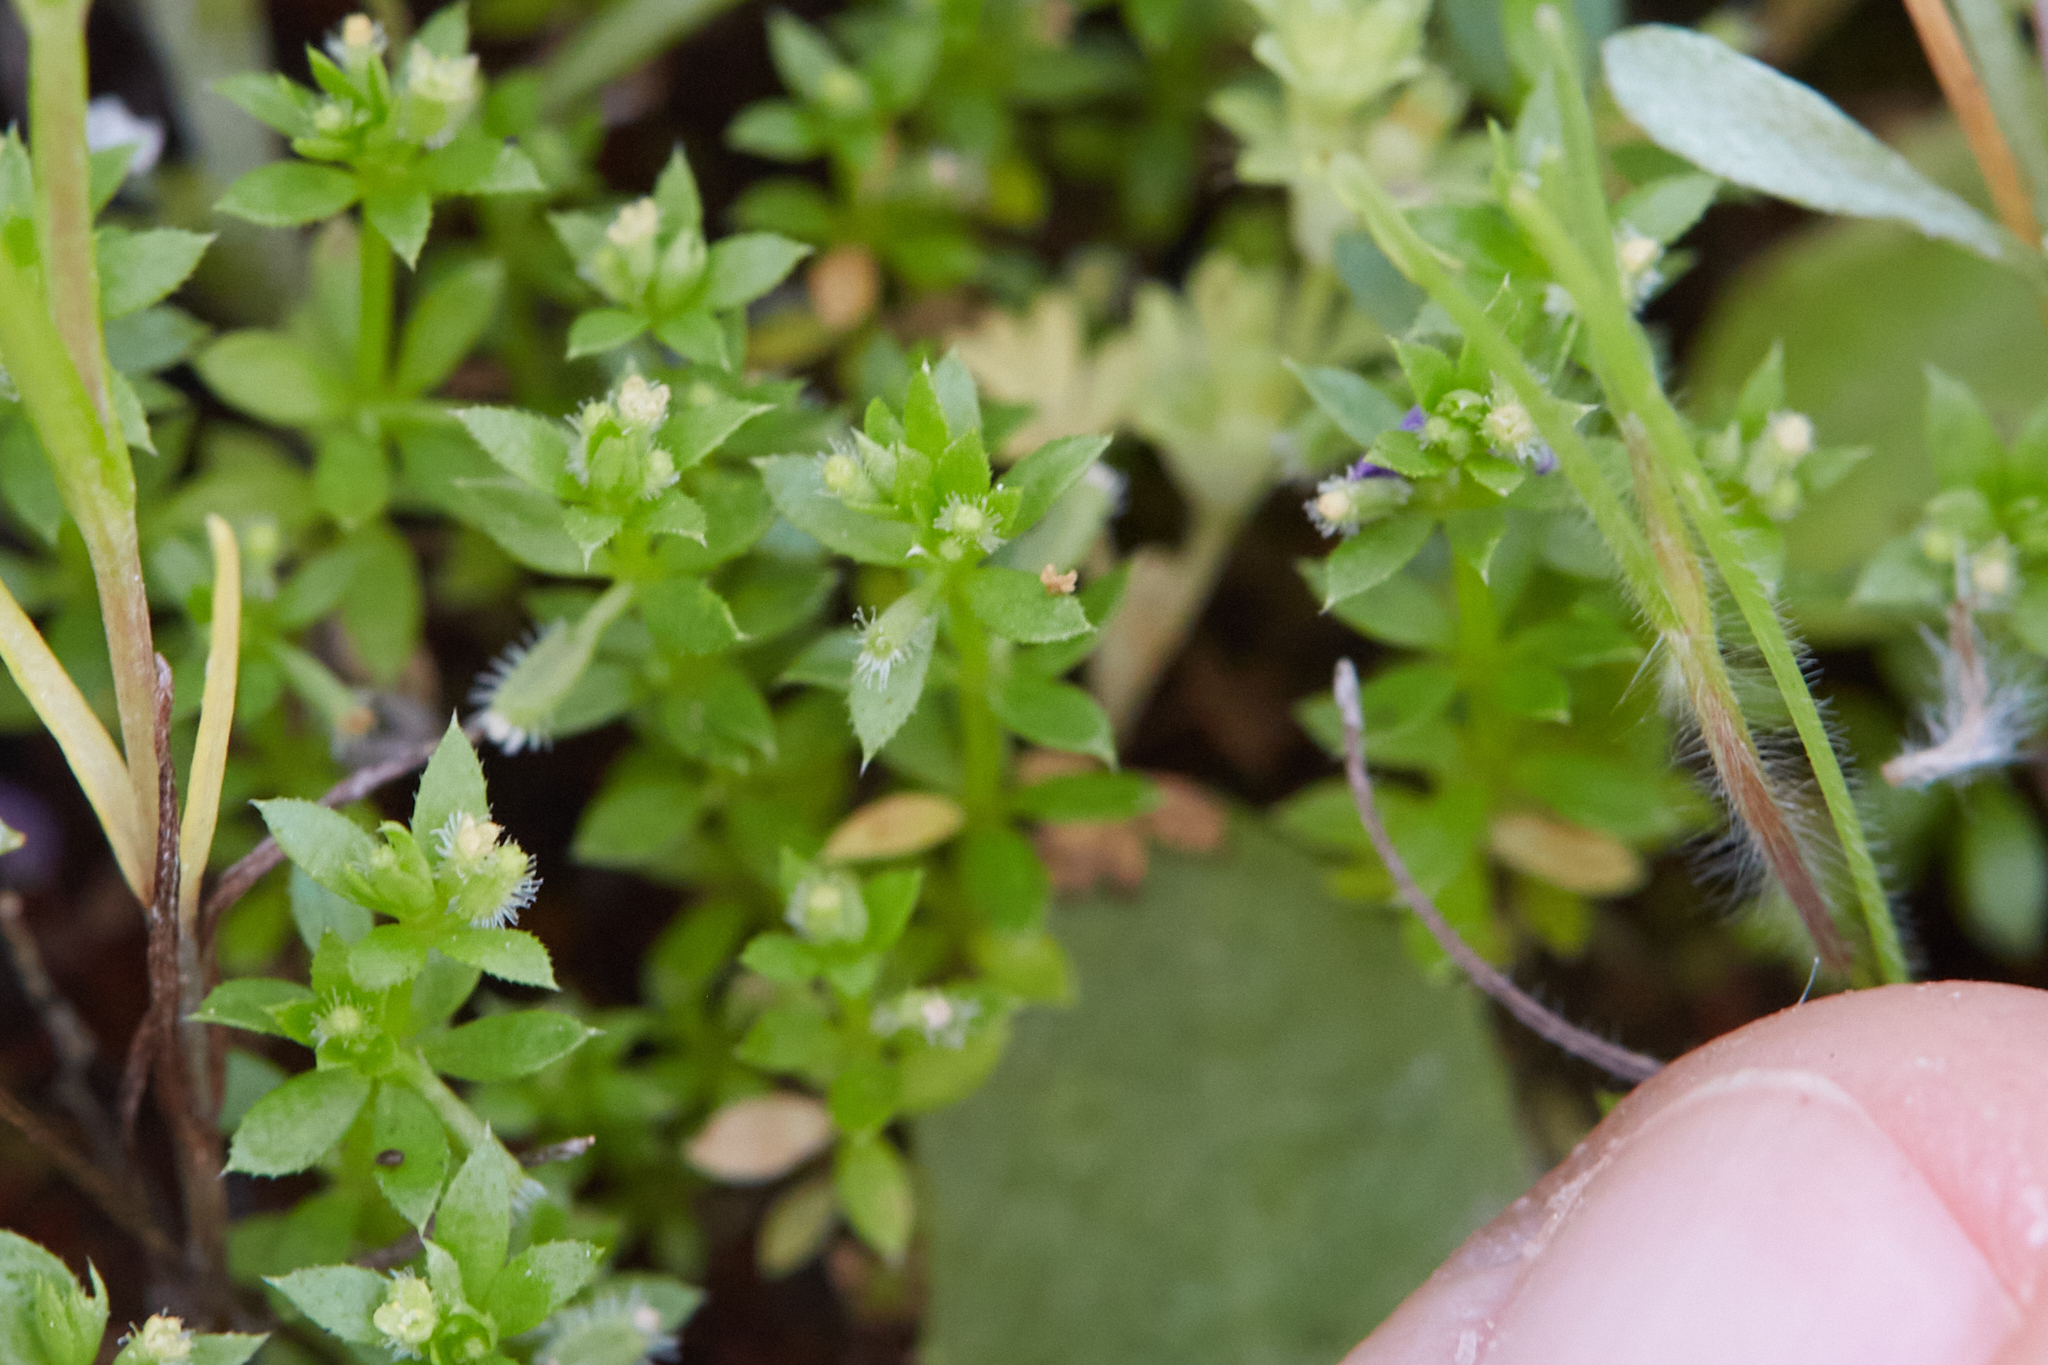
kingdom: Plantae
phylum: Tracheophyta
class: Magnoliopsida
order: Gentianales
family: Rubiaceae
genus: Galium
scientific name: Galium murale
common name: Yellow wall bedstraw
